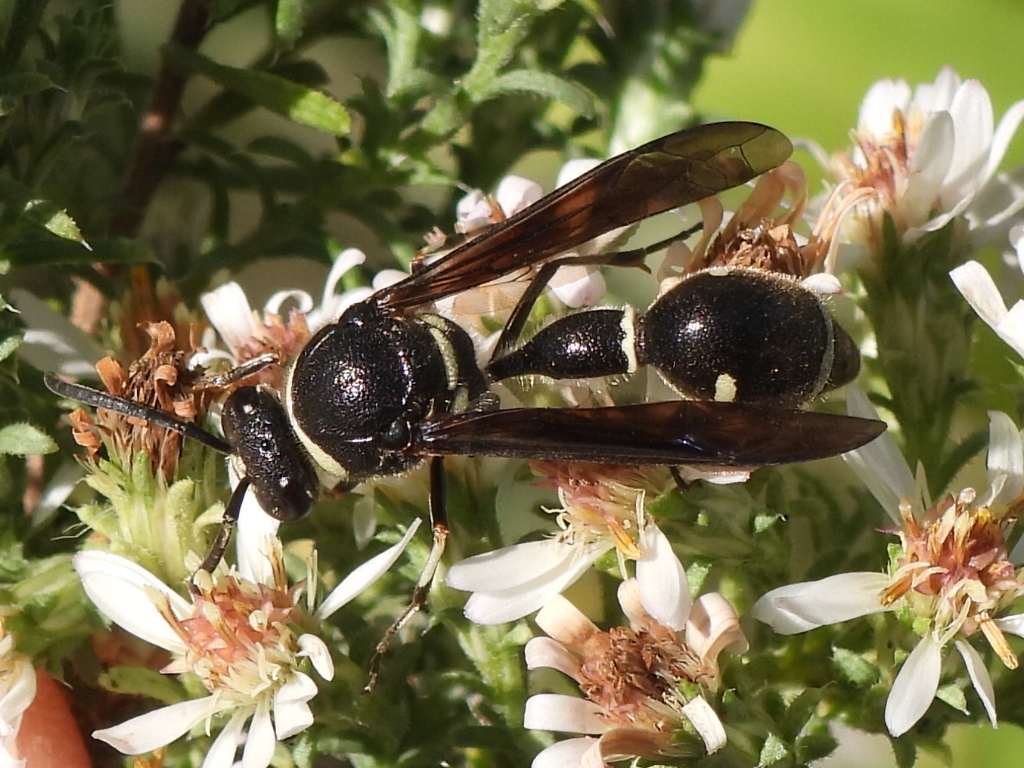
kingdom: Animalia
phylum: Arthropoda
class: Insecta
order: Hymenoptera
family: Vespidae
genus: Eumenes
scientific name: Eumenes fraternus
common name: Fraternal potter wasp
